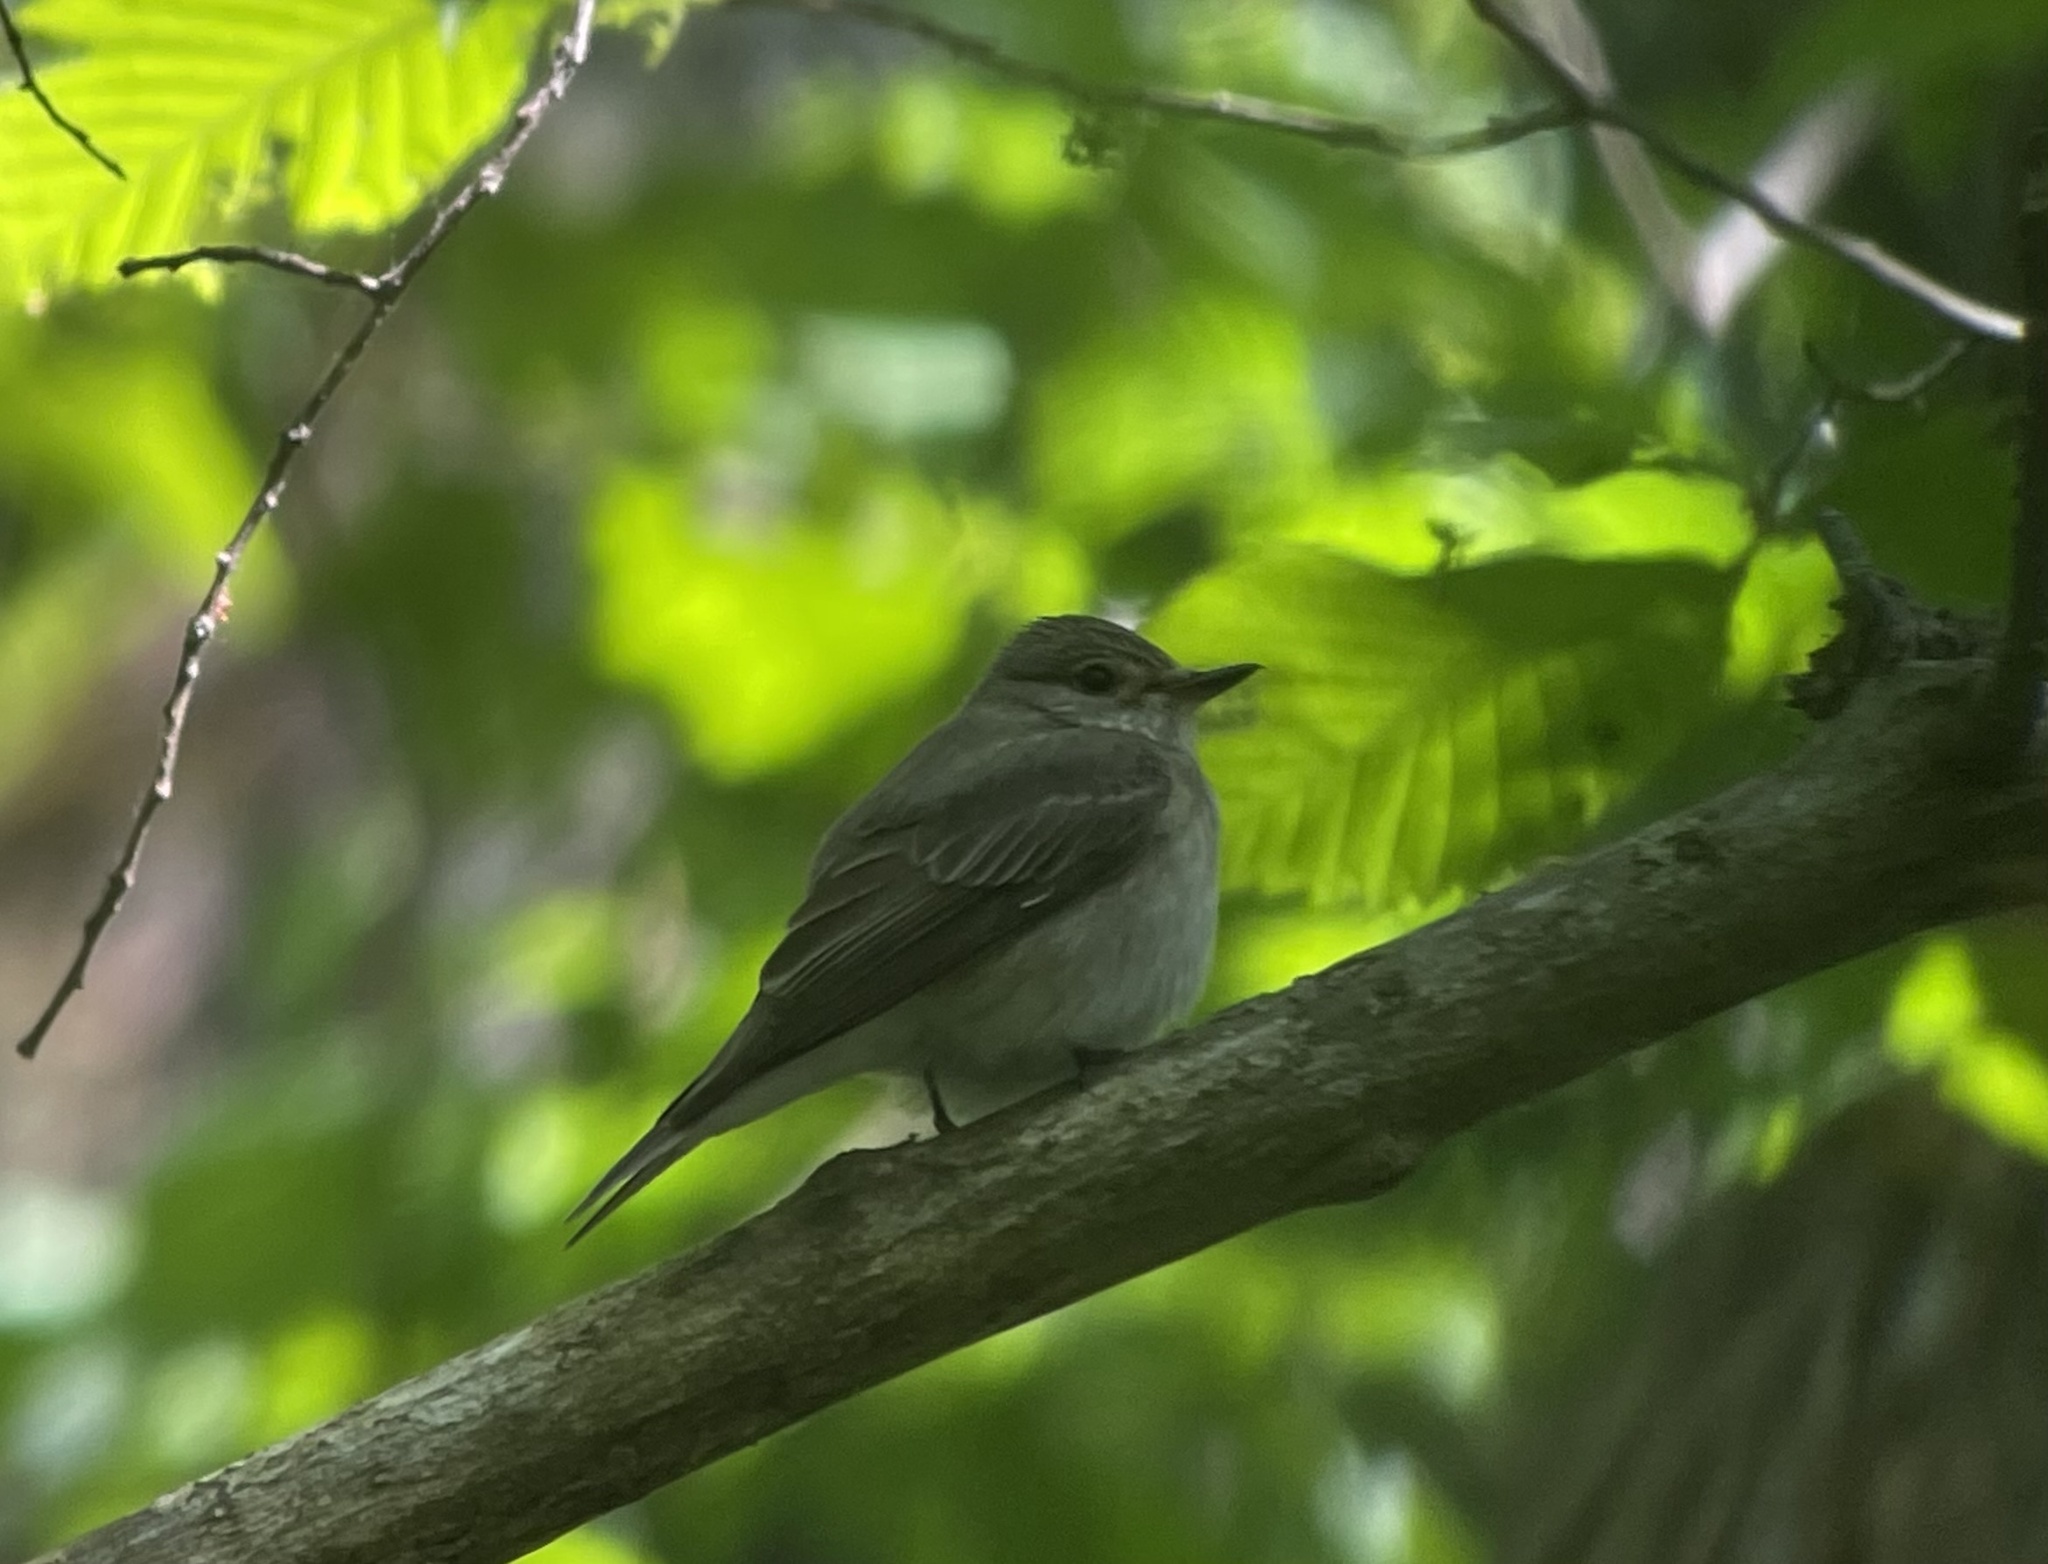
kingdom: Animalia
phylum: Chordata
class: Aves
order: Passeriformes
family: Muscicapidae
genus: Muscicapa
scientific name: Muscicapa striata
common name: Spotted flycatcher
